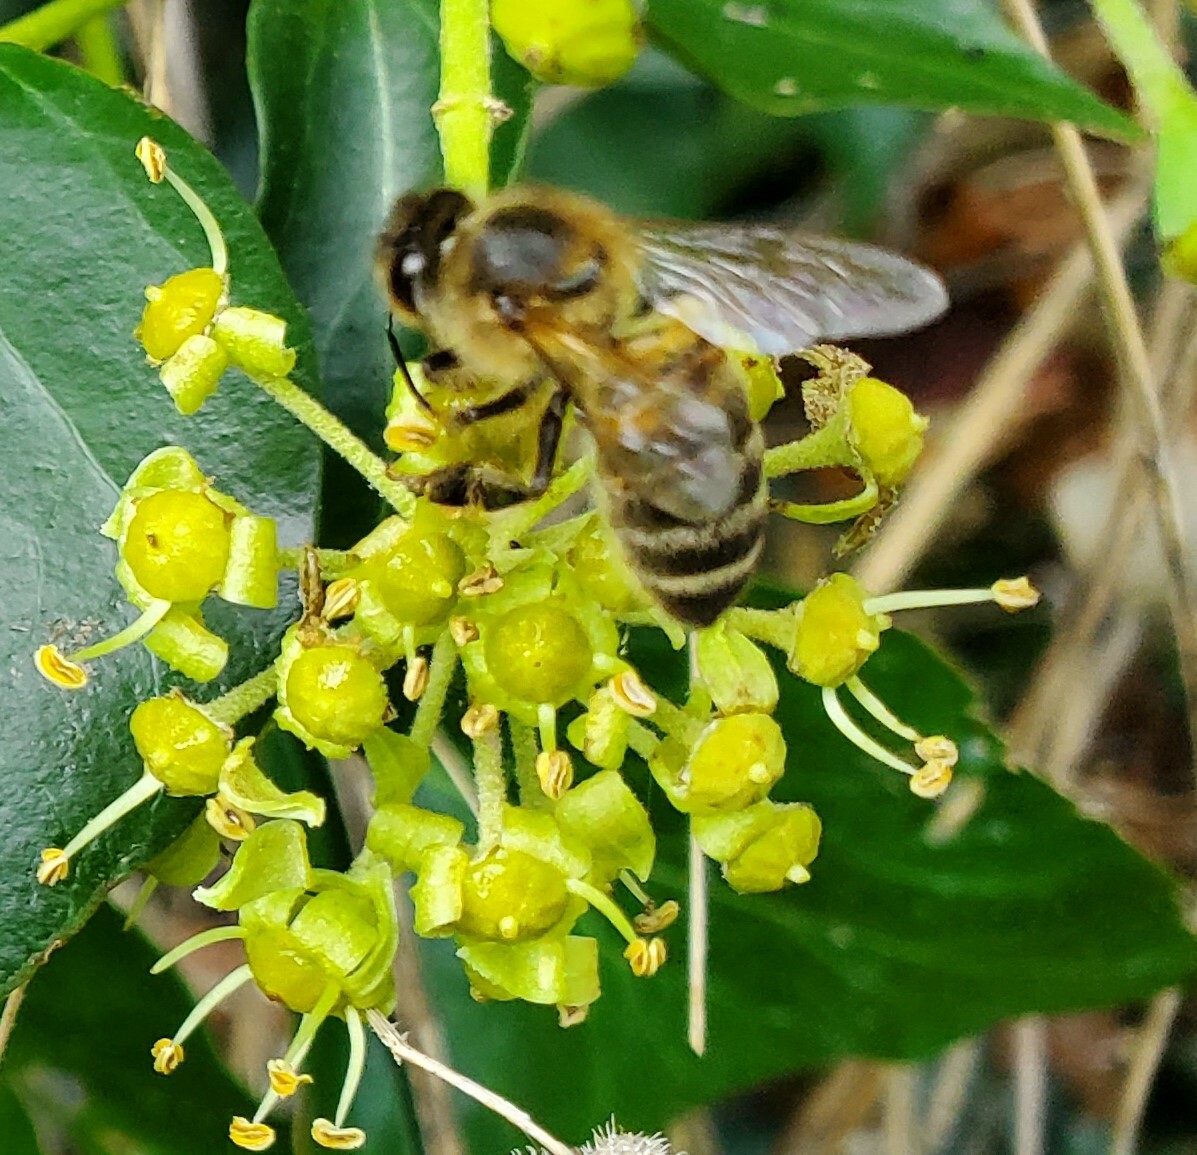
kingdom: Animalia
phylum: Arthropoda
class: Insecta
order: Hymenoptera
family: Apidae
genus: Apis
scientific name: Apis mellifera
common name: Honey bee
